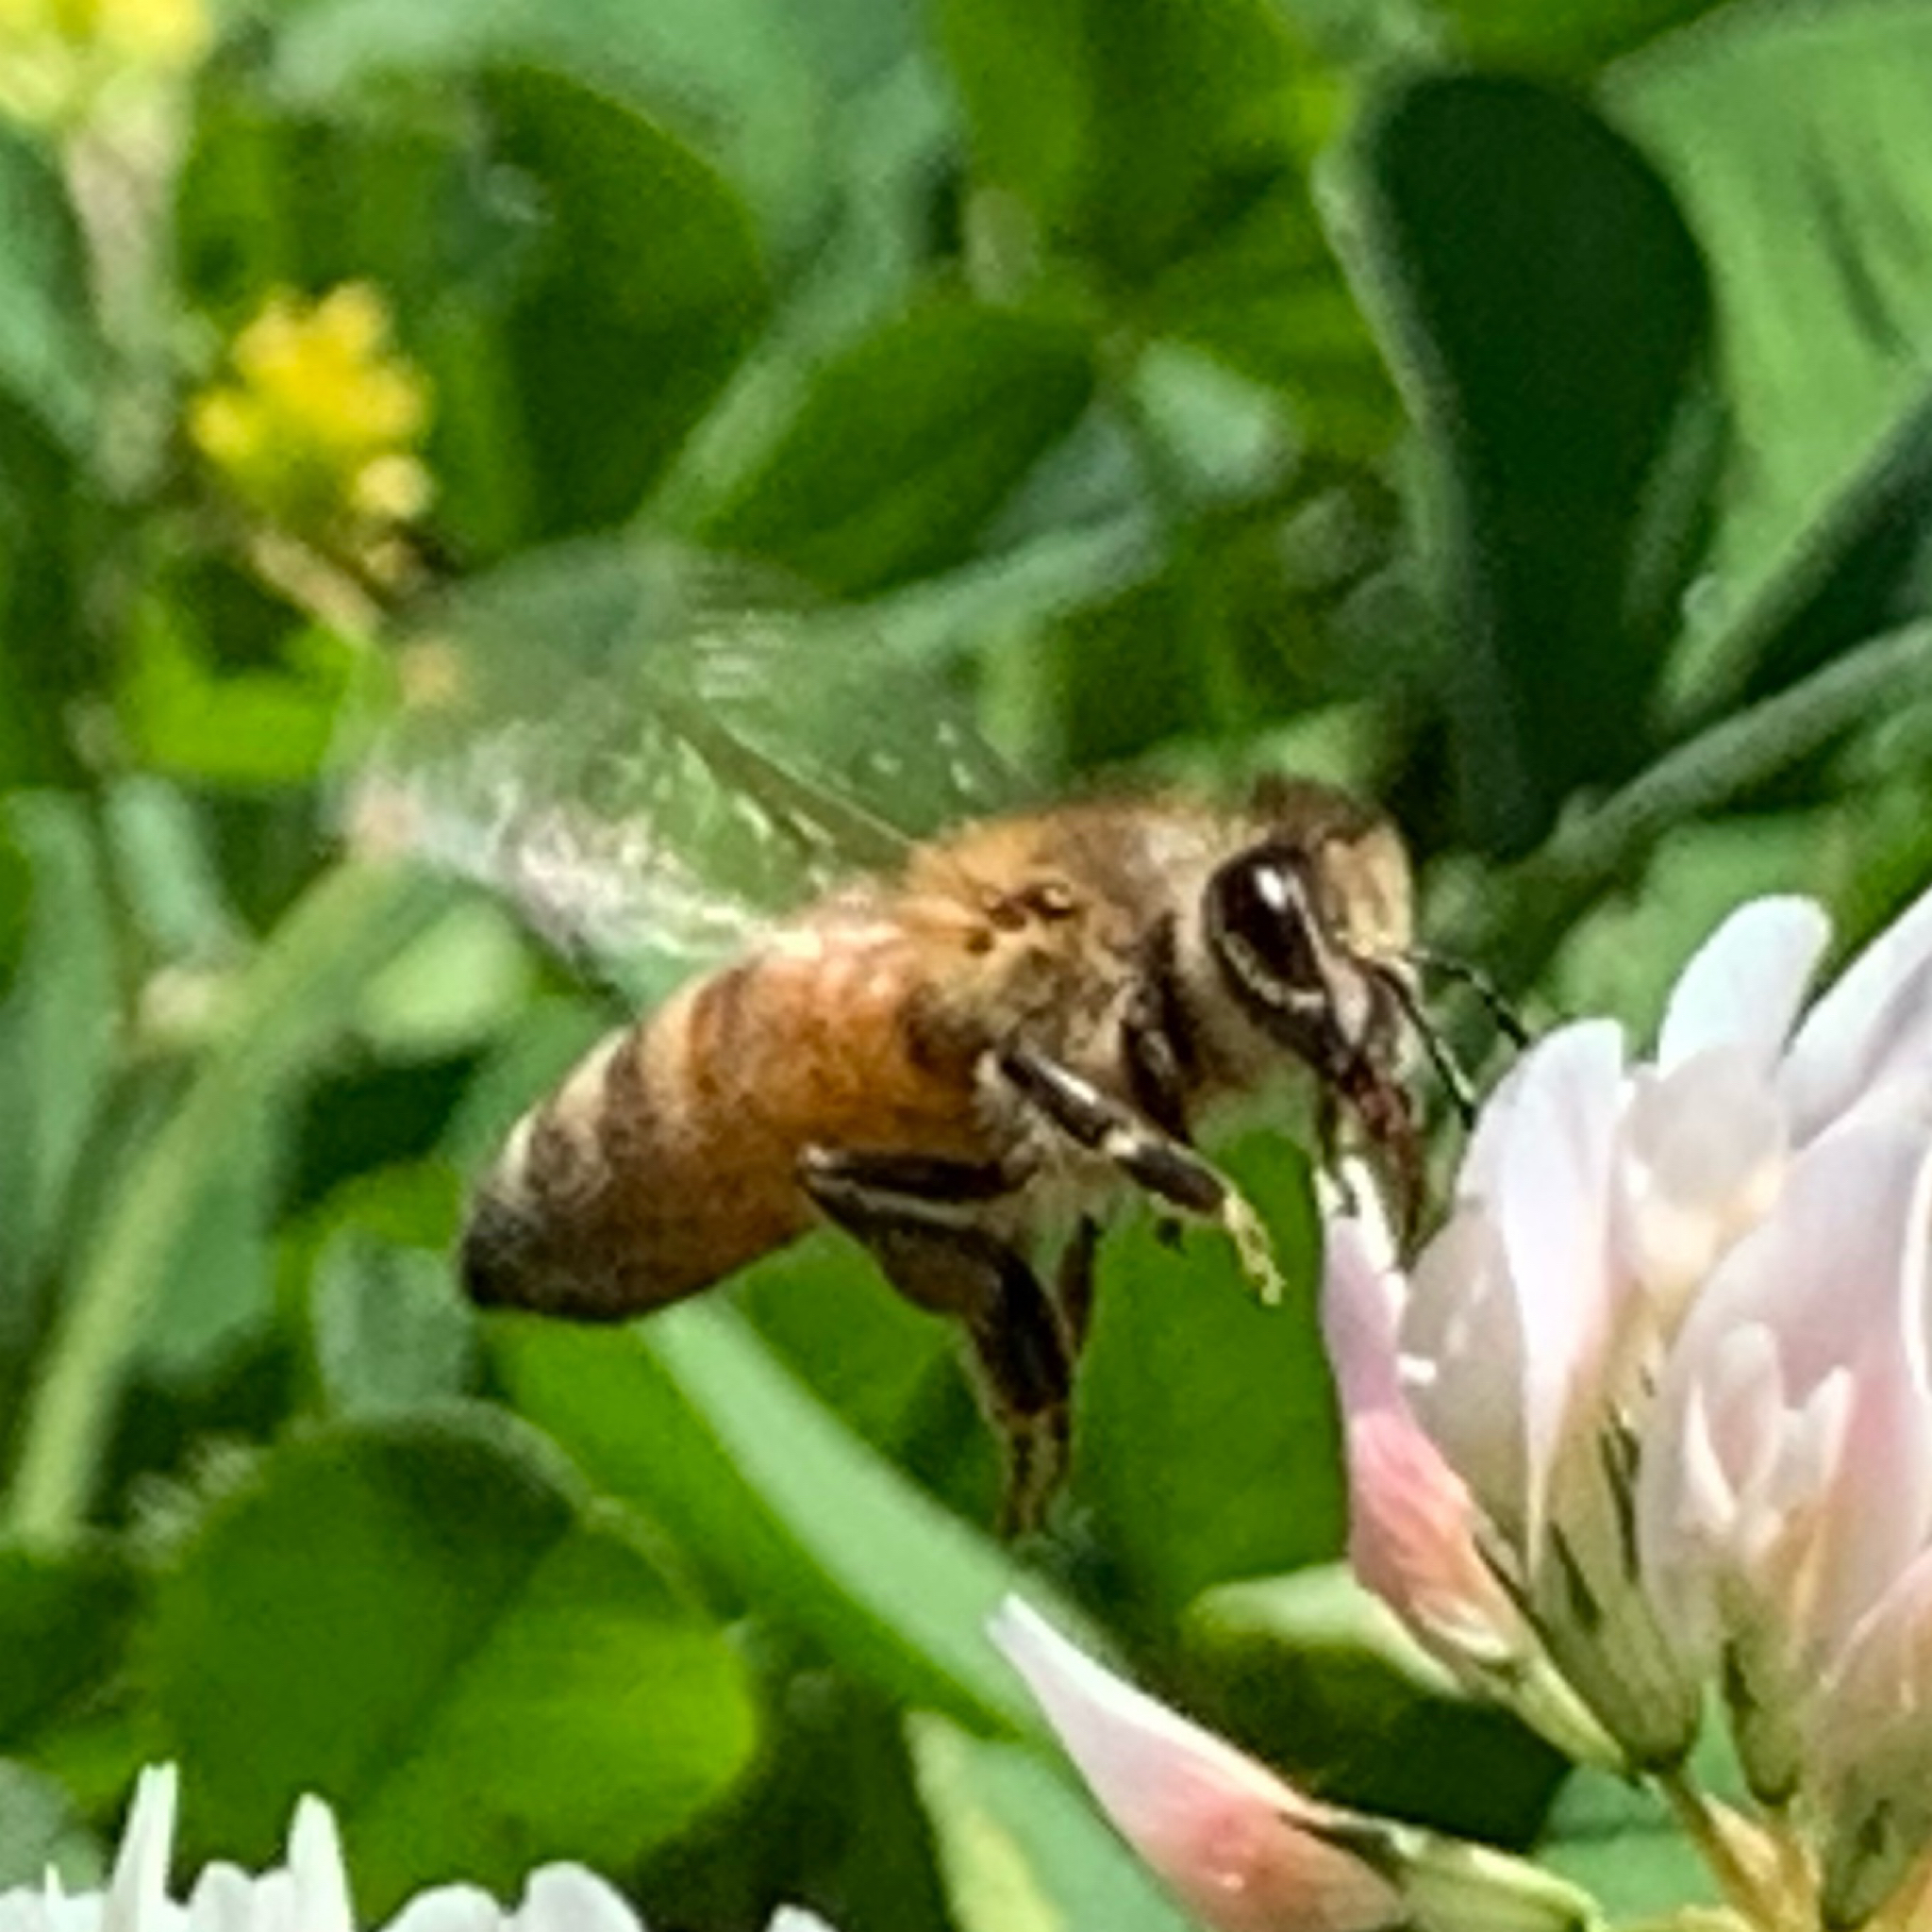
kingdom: Animalia
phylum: Arthropoda
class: Insecta
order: Hymenoptera
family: Apidae
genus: Apis
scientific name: Apis mellifera
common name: Honey bee
